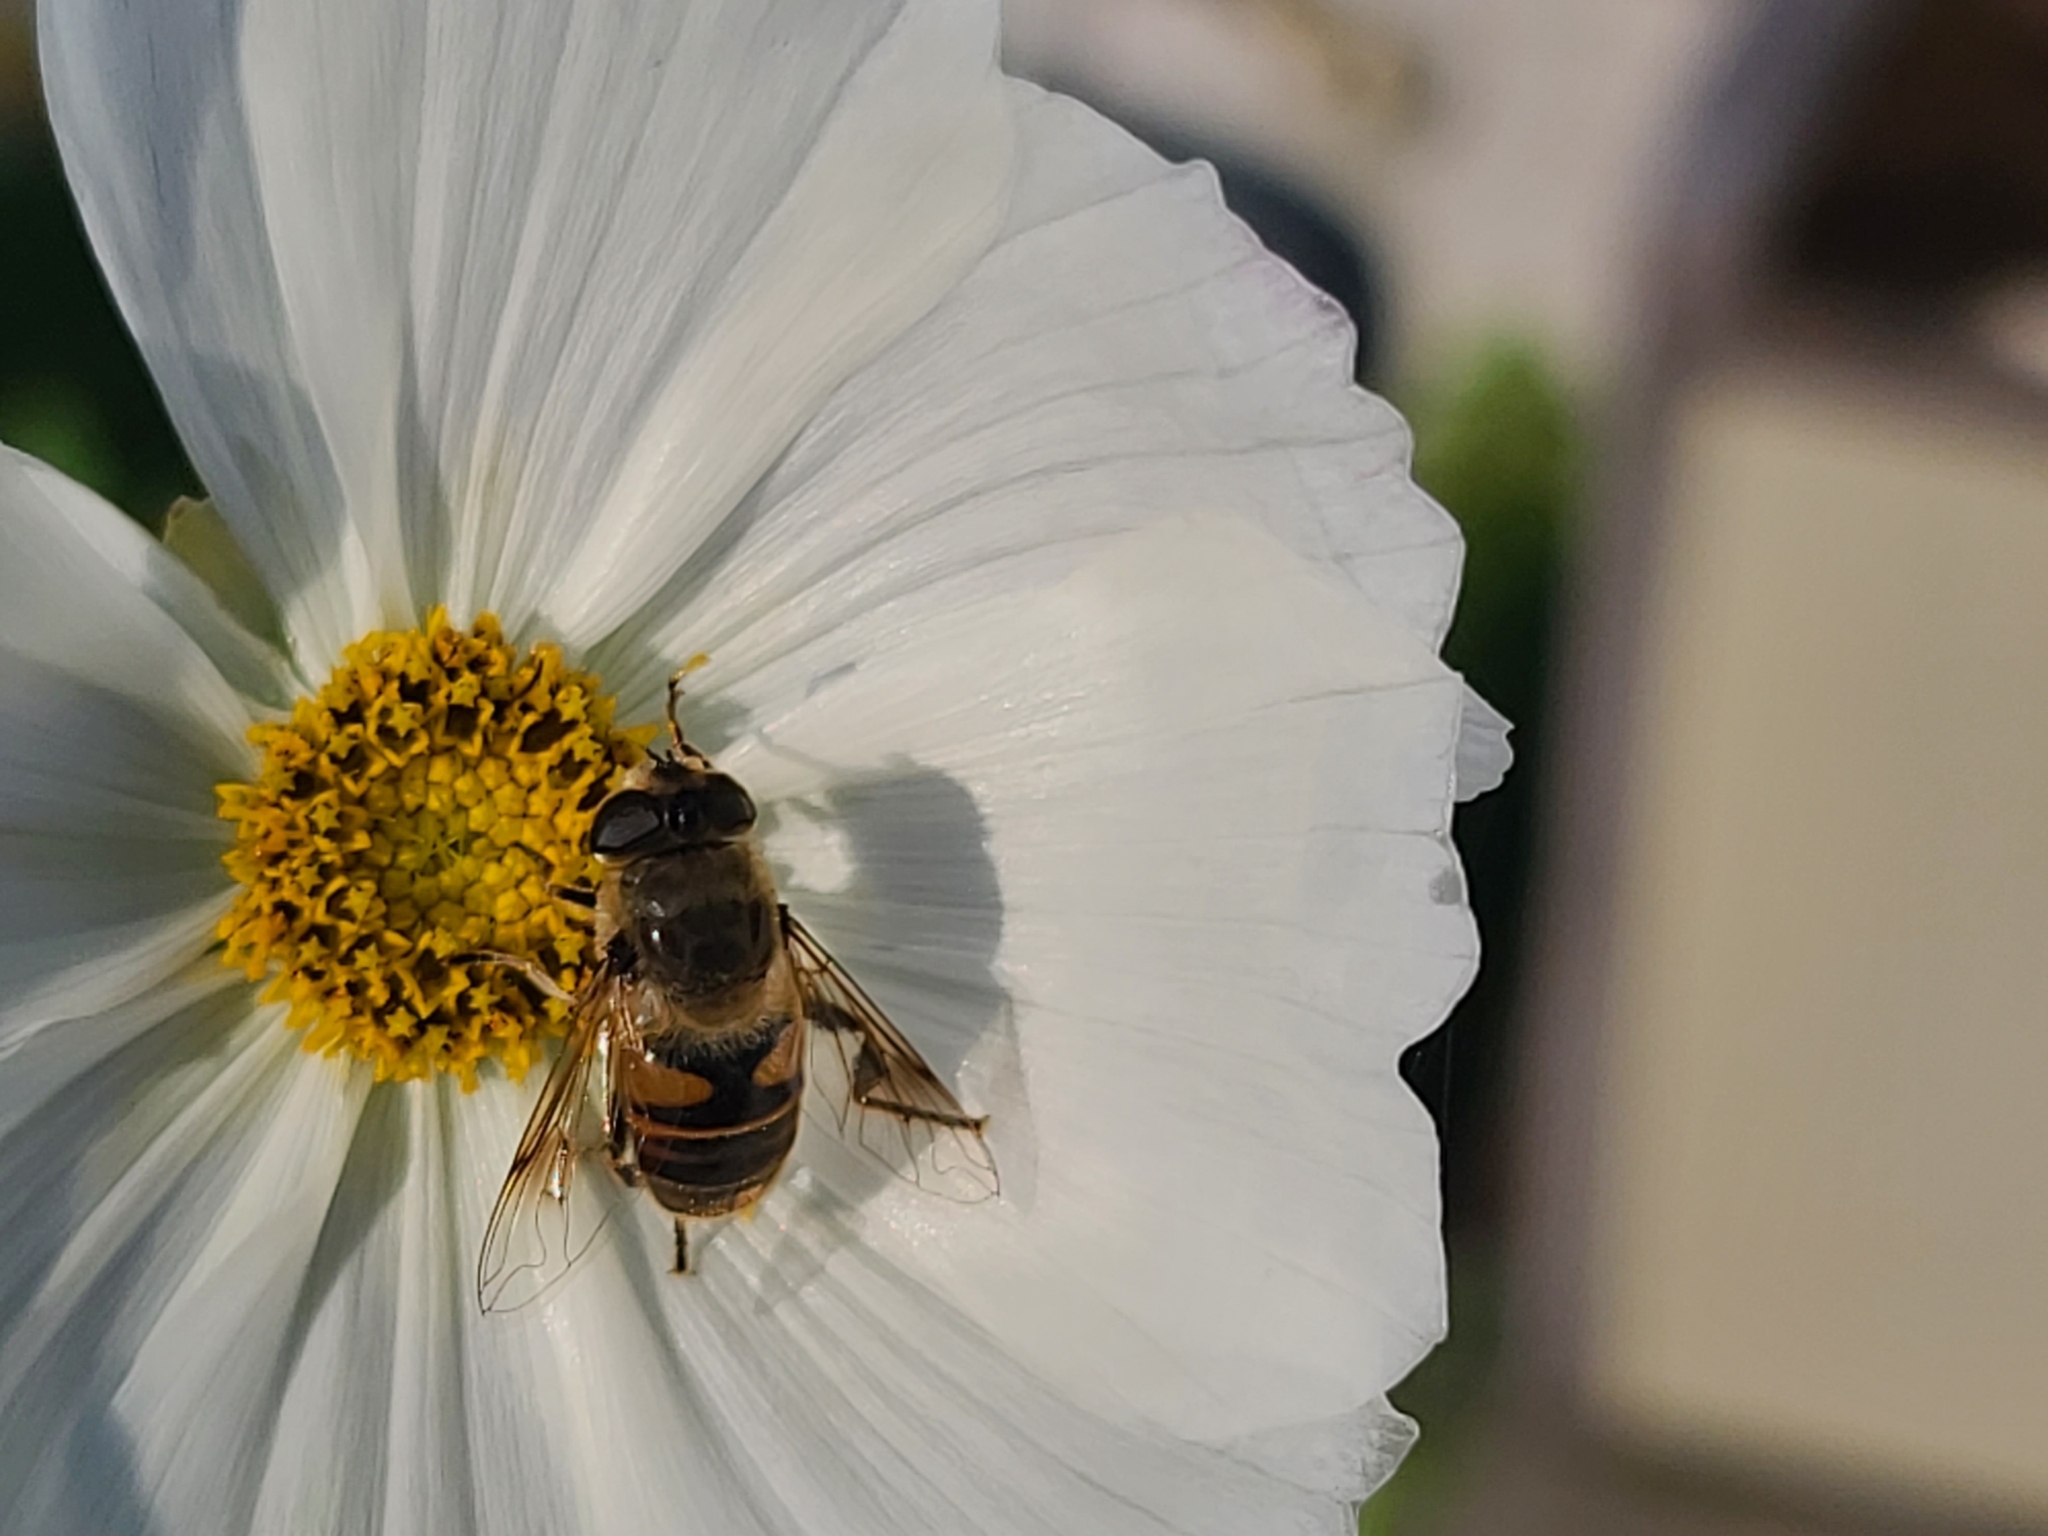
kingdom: Animalia
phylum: Arthropoda
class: Insecta
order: Diptera
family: Syrphidae
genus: Eristalis
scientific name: Eristalis tenax
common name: Drone fly
